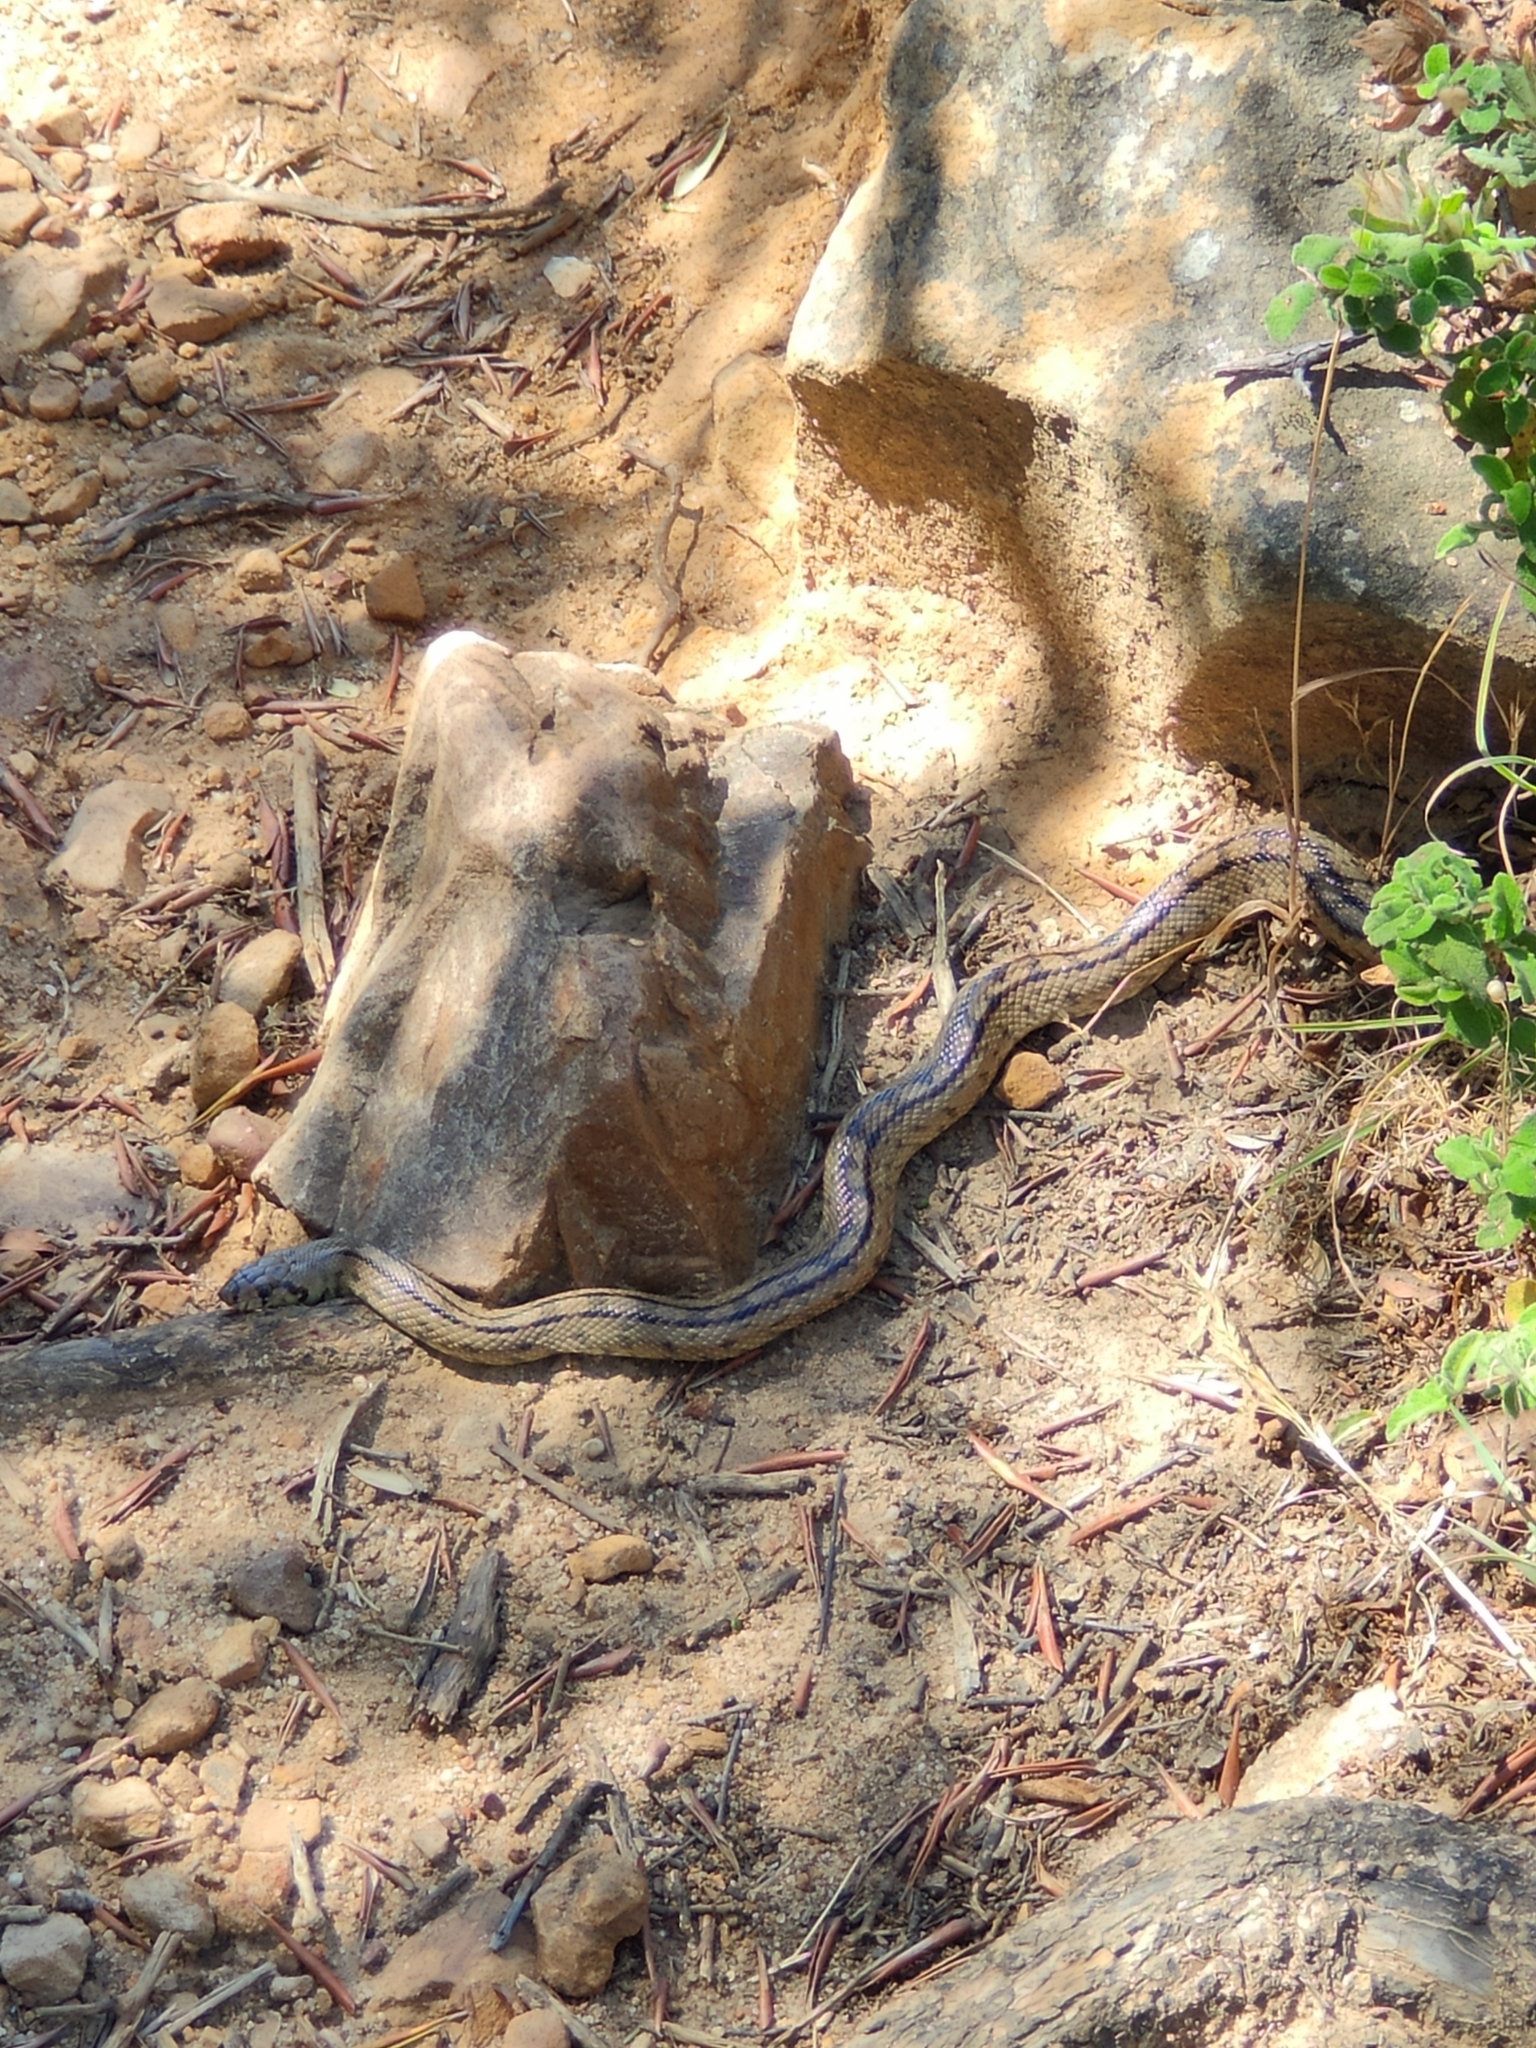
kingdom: Animalia
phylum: Chordata
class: Squamata
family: Colubridae
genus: Zamenis
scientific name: Zamenis scalaris
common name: Ladder snakes
